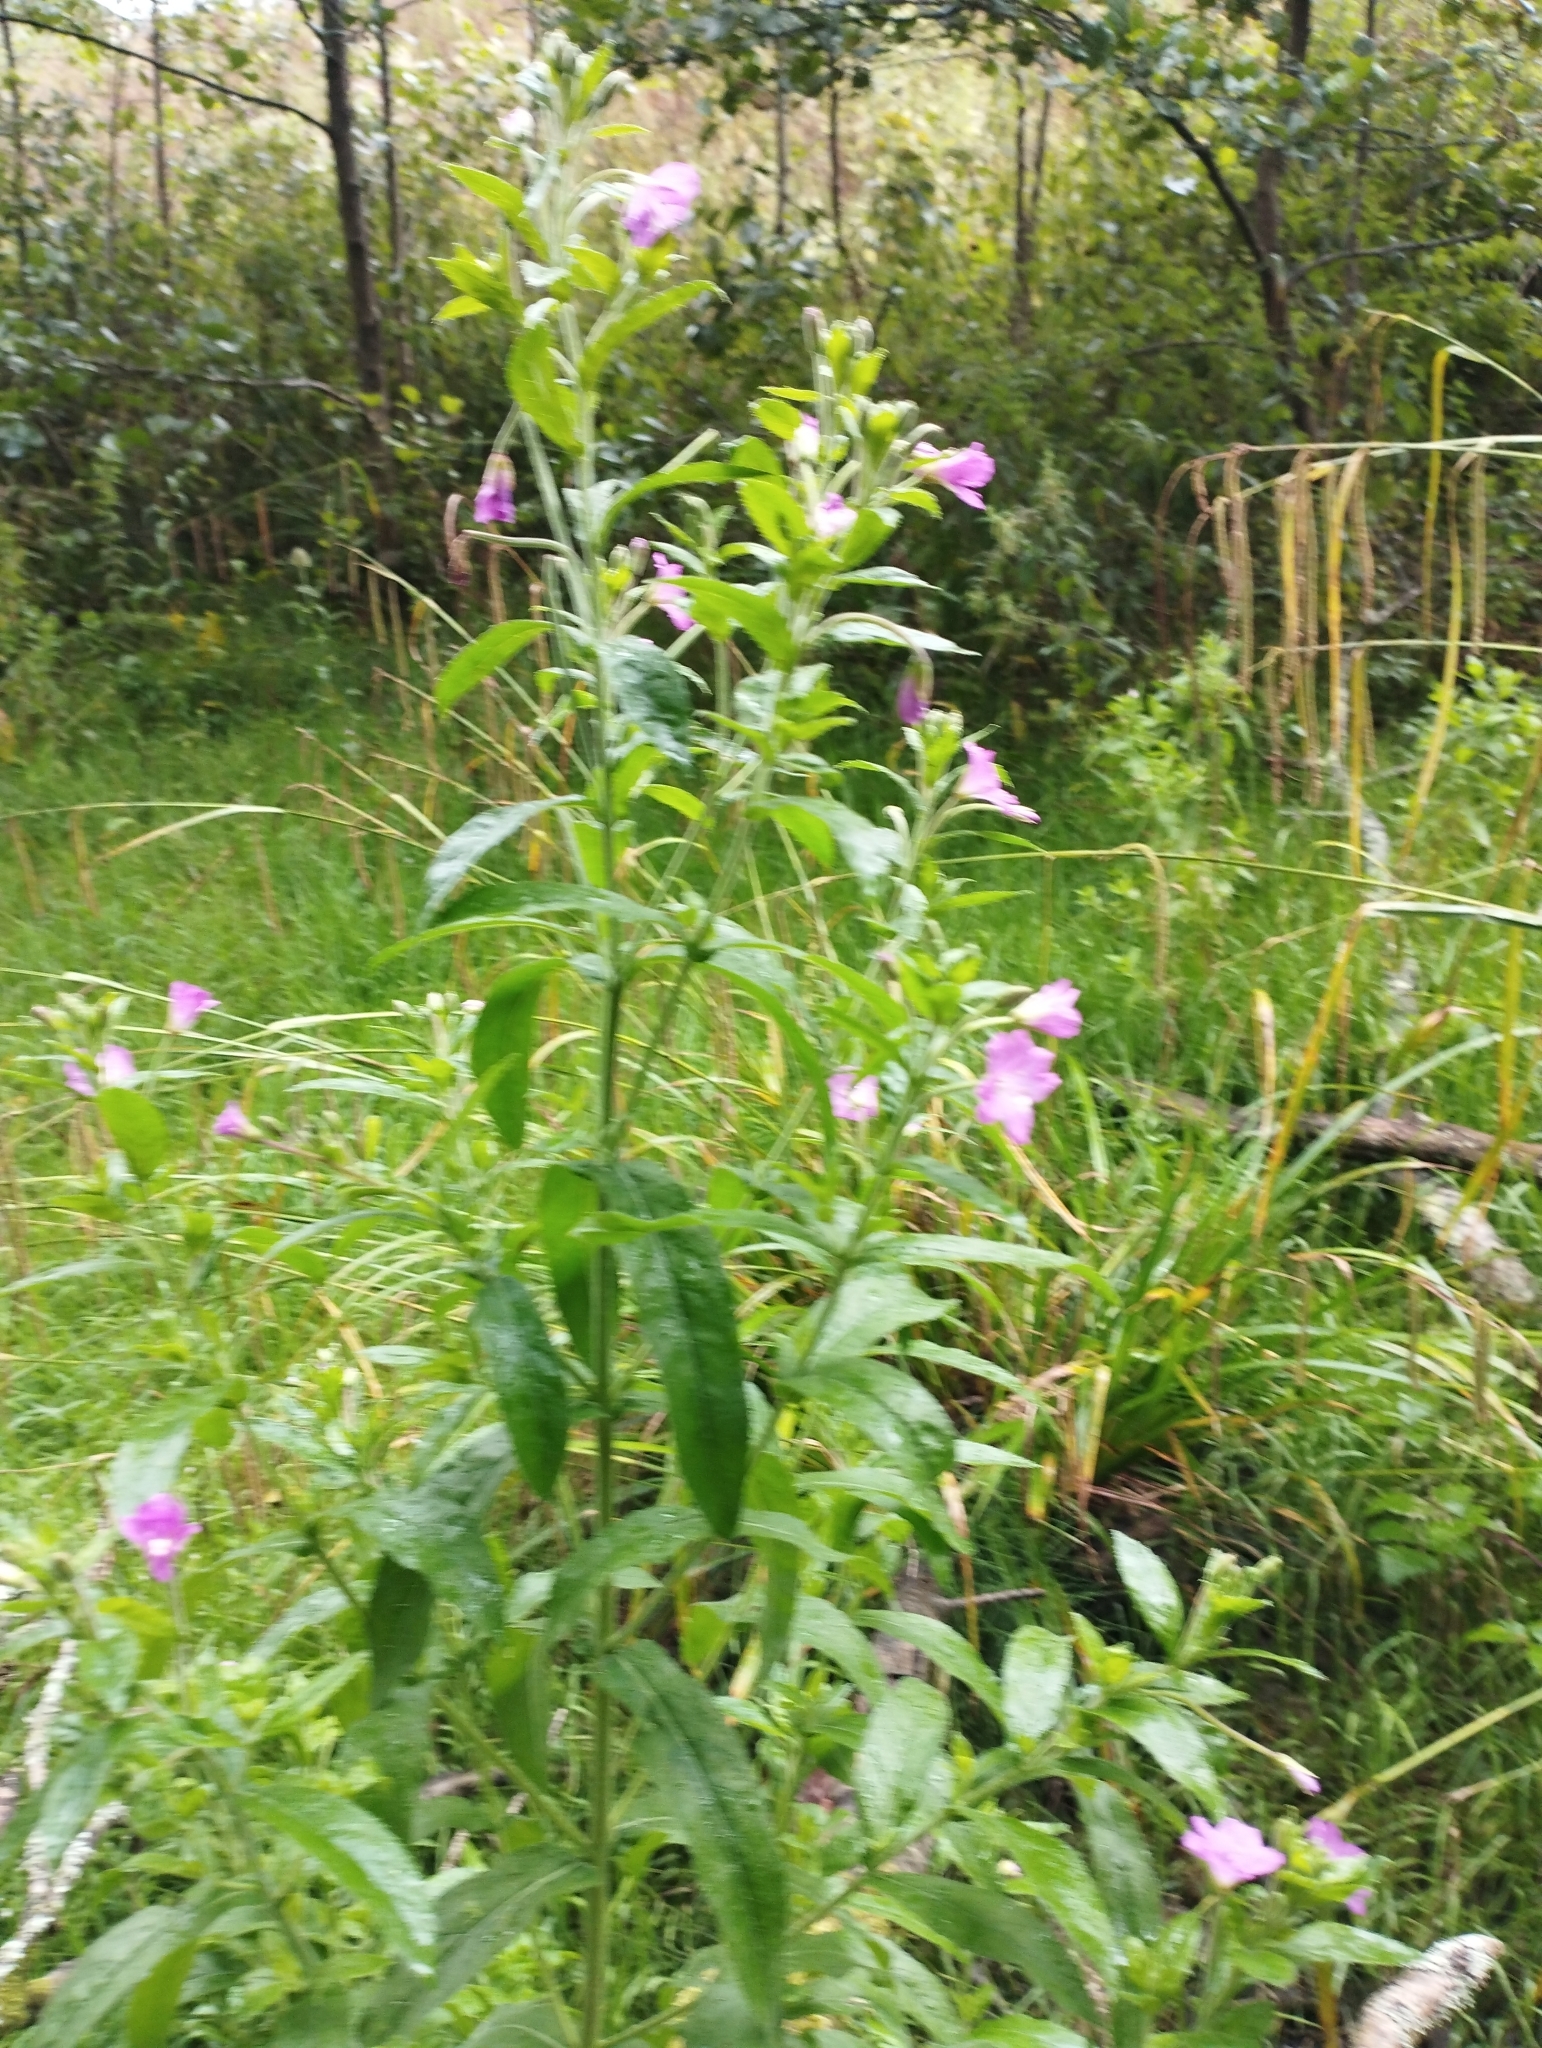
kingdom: Plantae
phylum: Tracheophyta
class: Magnoliopsida
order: Myrtales
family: Onagraceae
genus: Epilobium
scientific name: Epilobium hirsutum
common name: Great willowherb
